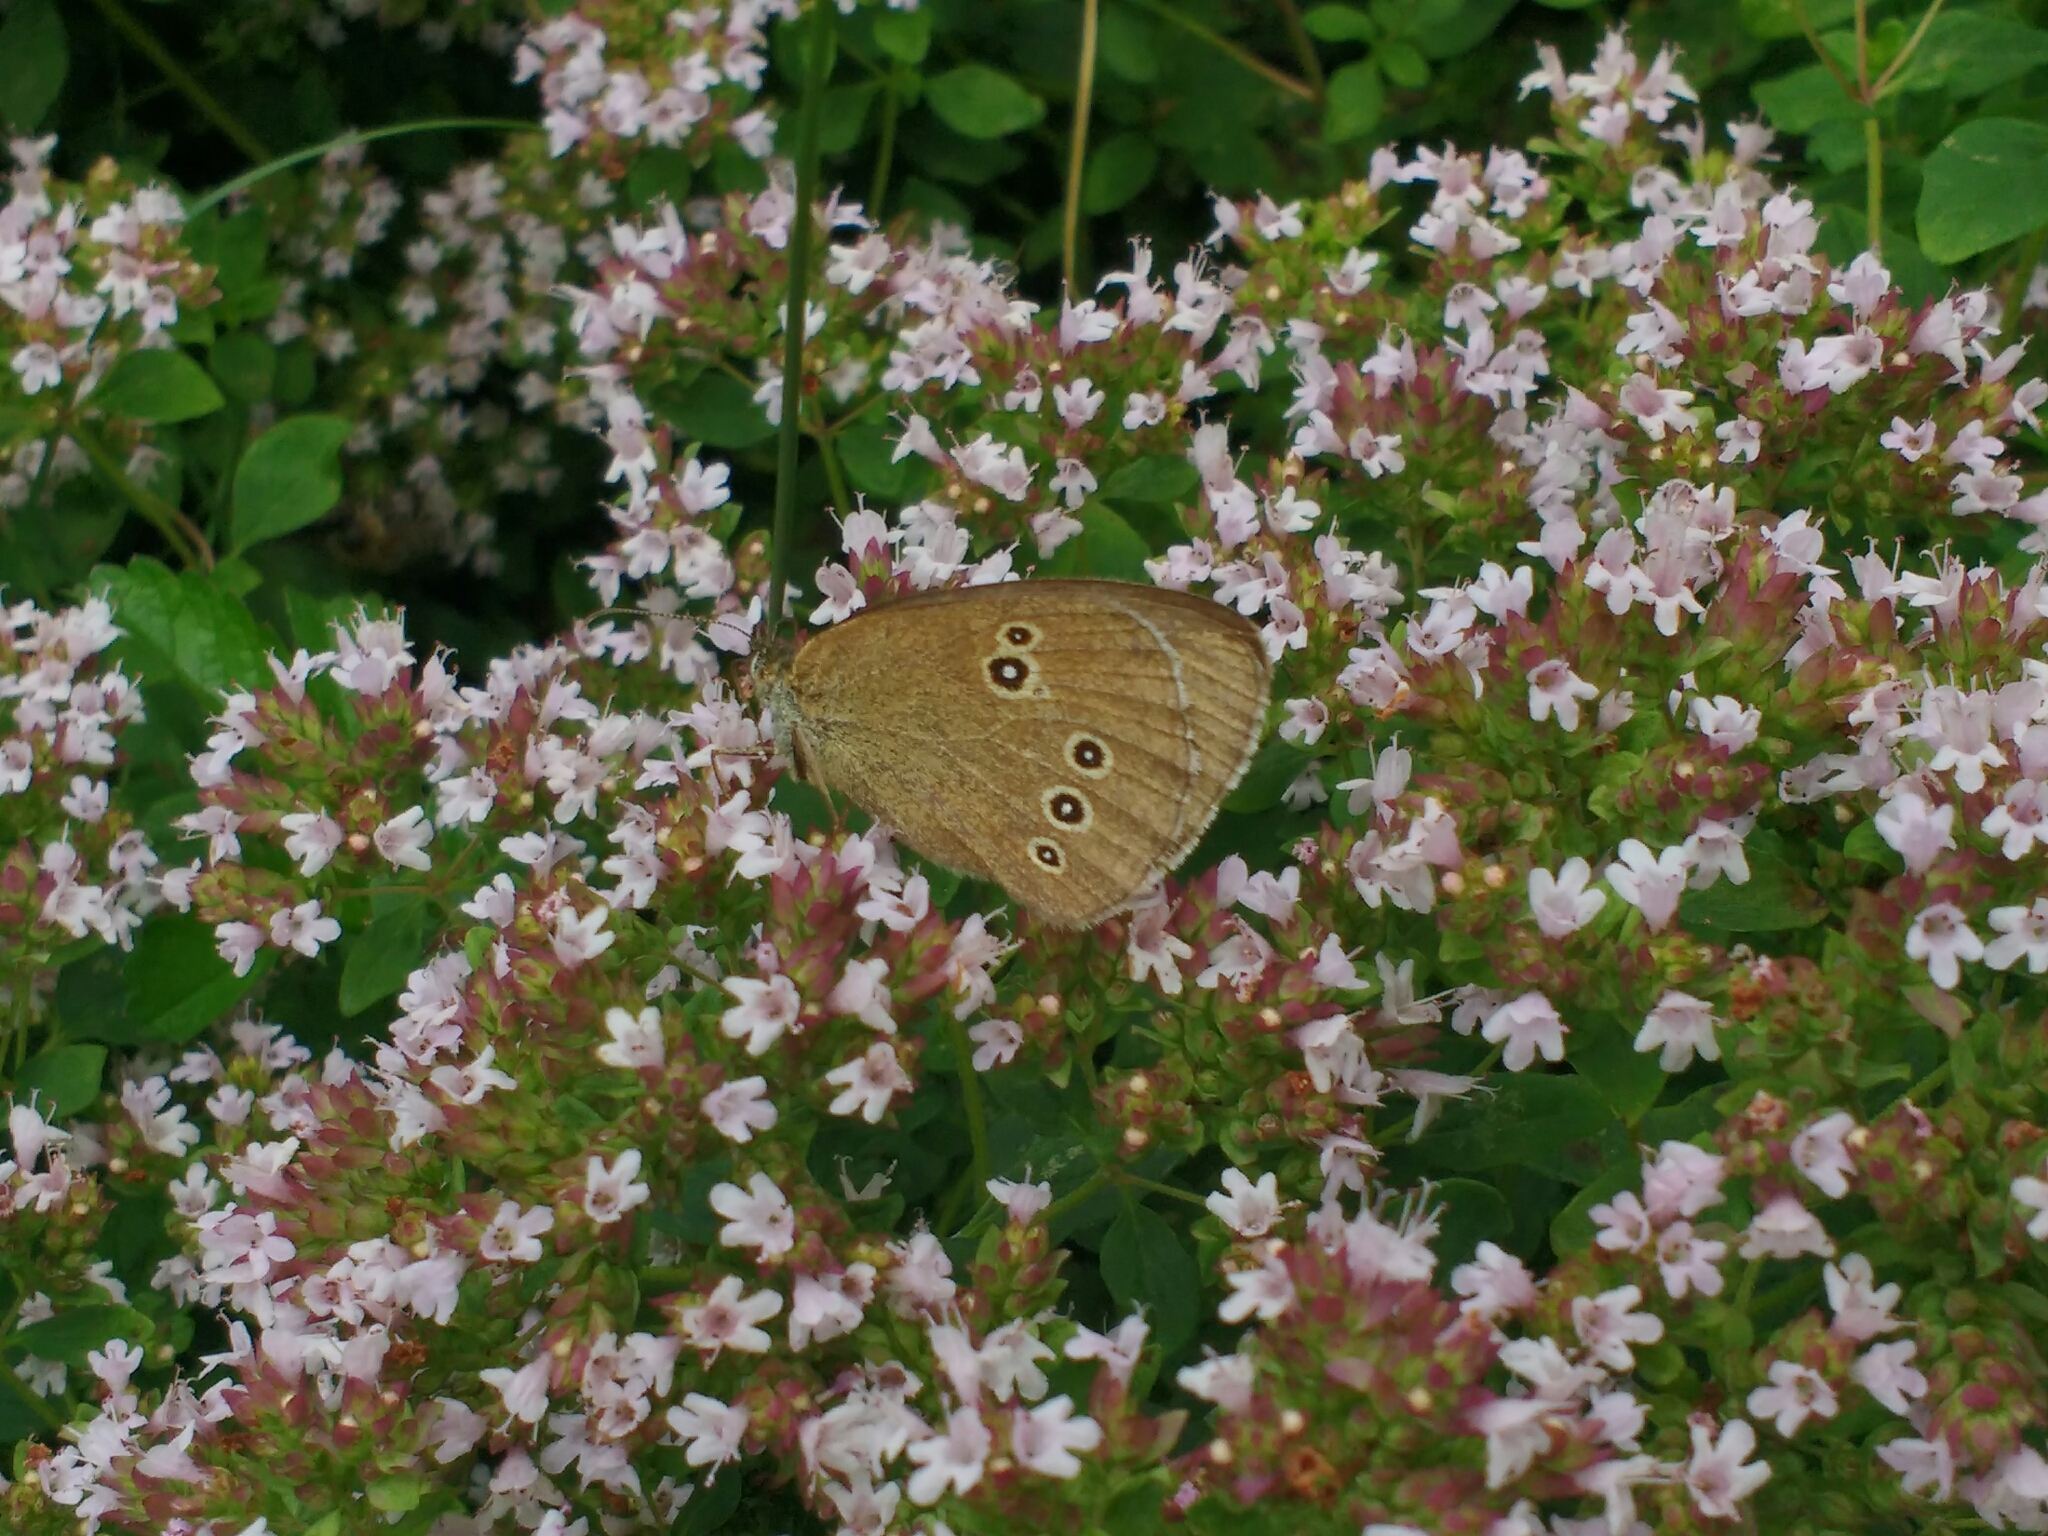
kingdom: Animalia
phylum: Arthropoda
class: Insecta
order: Lepidoptera
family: Nymphalidae
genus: Aphantopus
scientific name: Aphantopus hyperantus
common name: Ringlet
